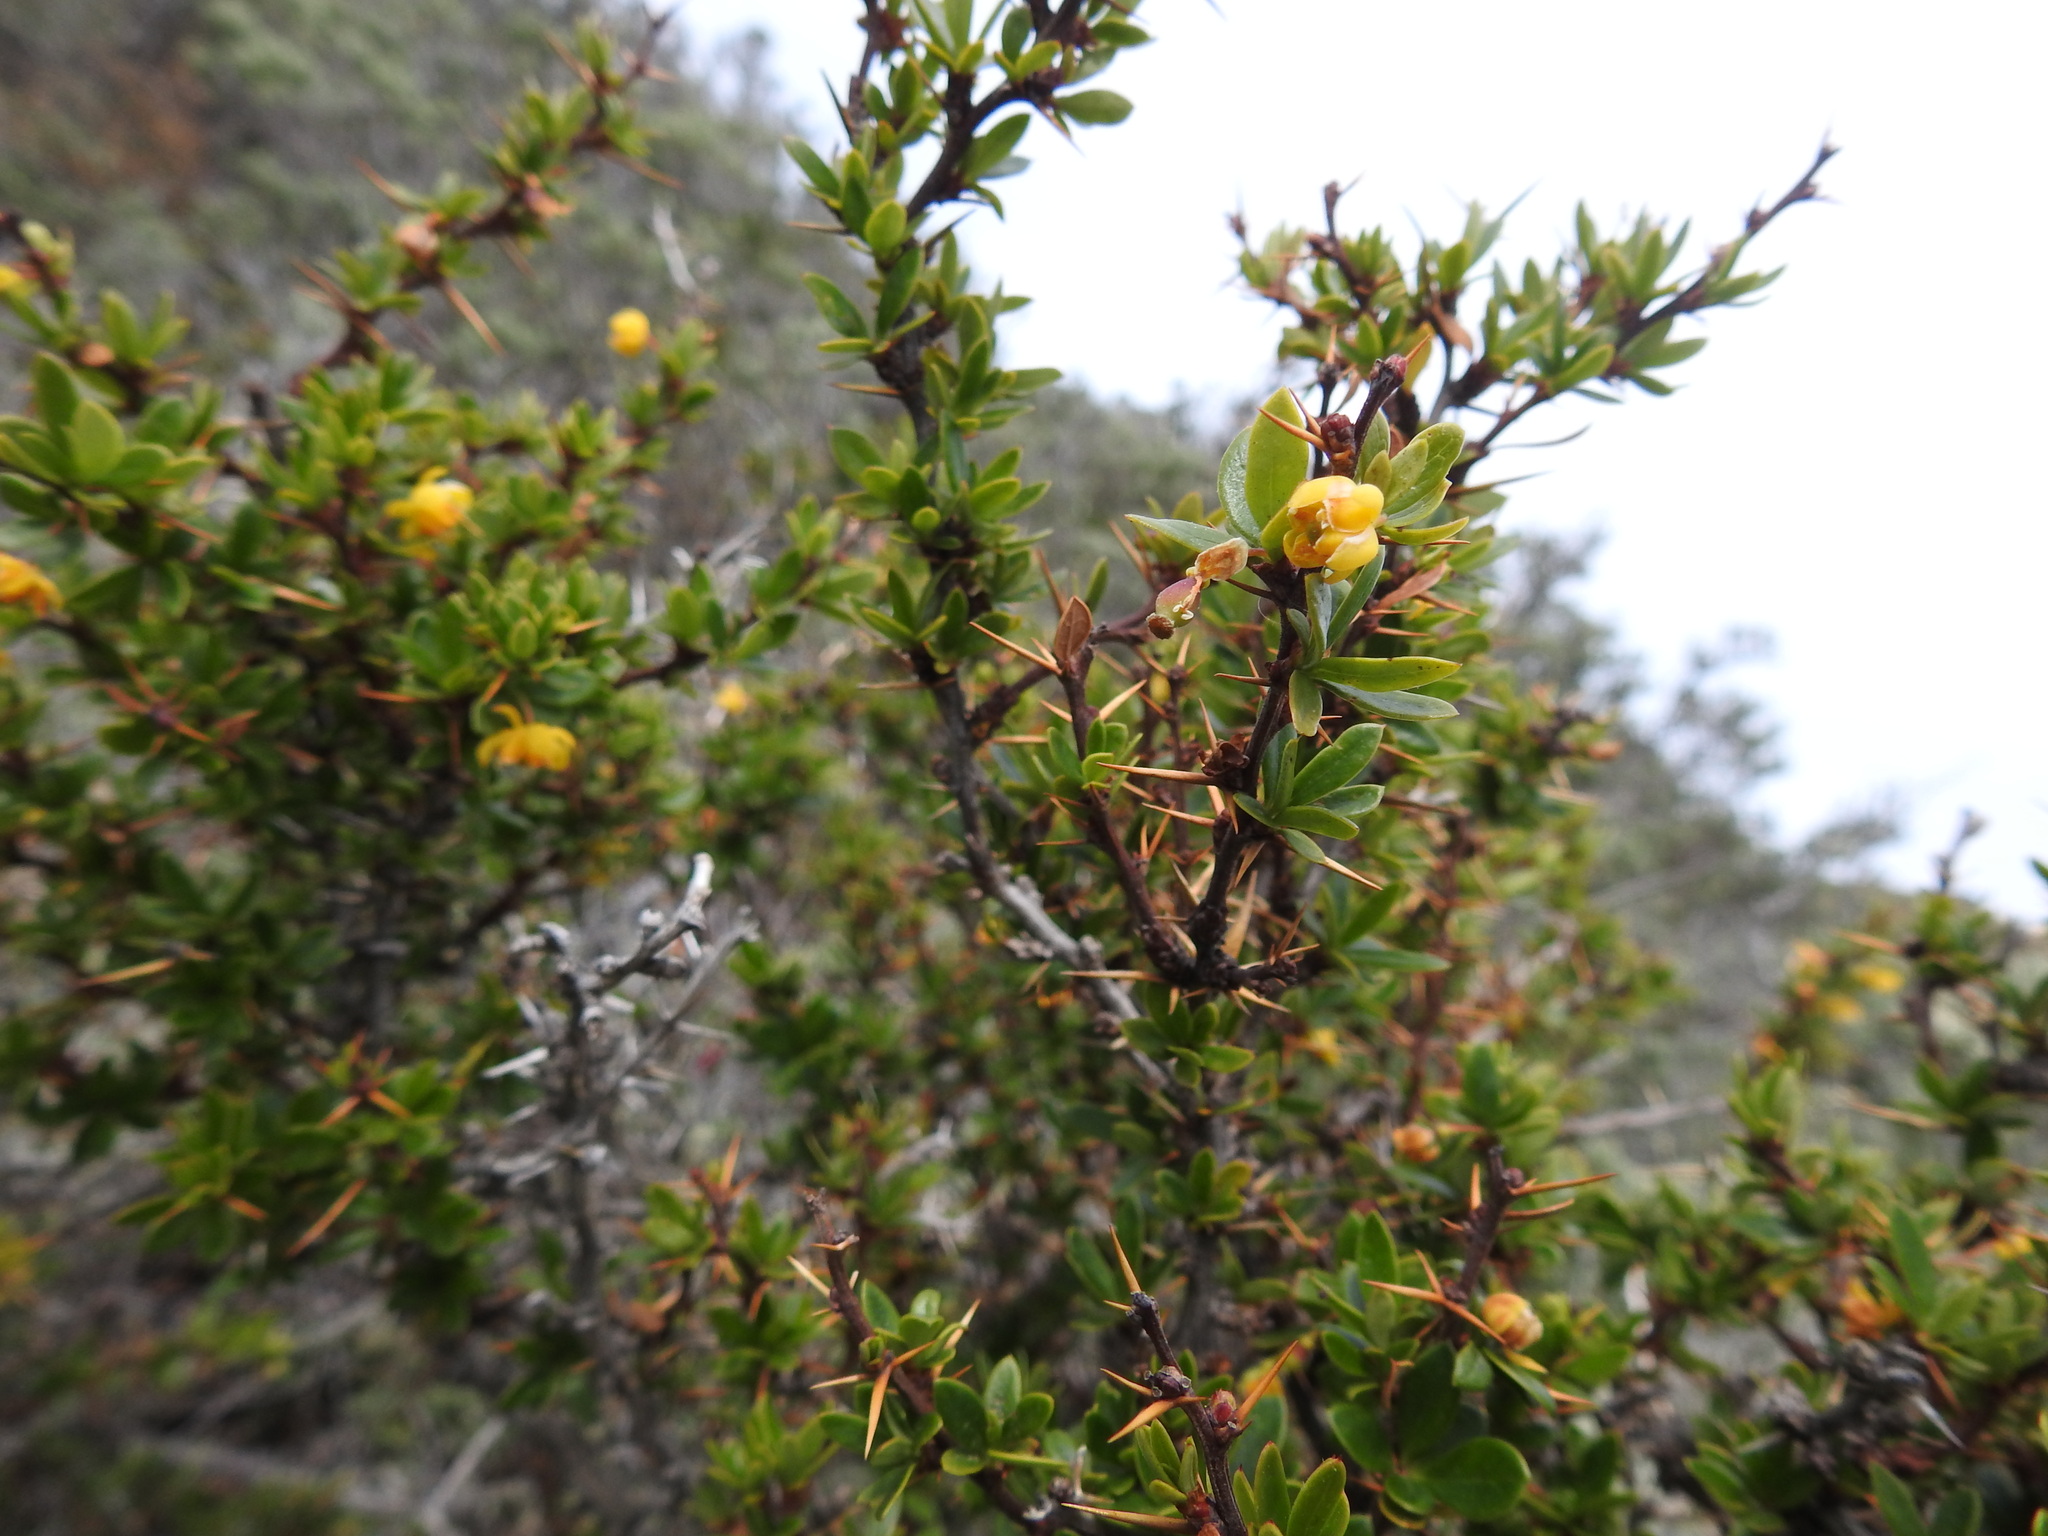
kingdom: Plantae
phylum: Tracheophyta
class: Magnoliopsida
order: Ranunculales
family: Berberidaceae
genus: Berberis
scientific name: Berberis microphylla
